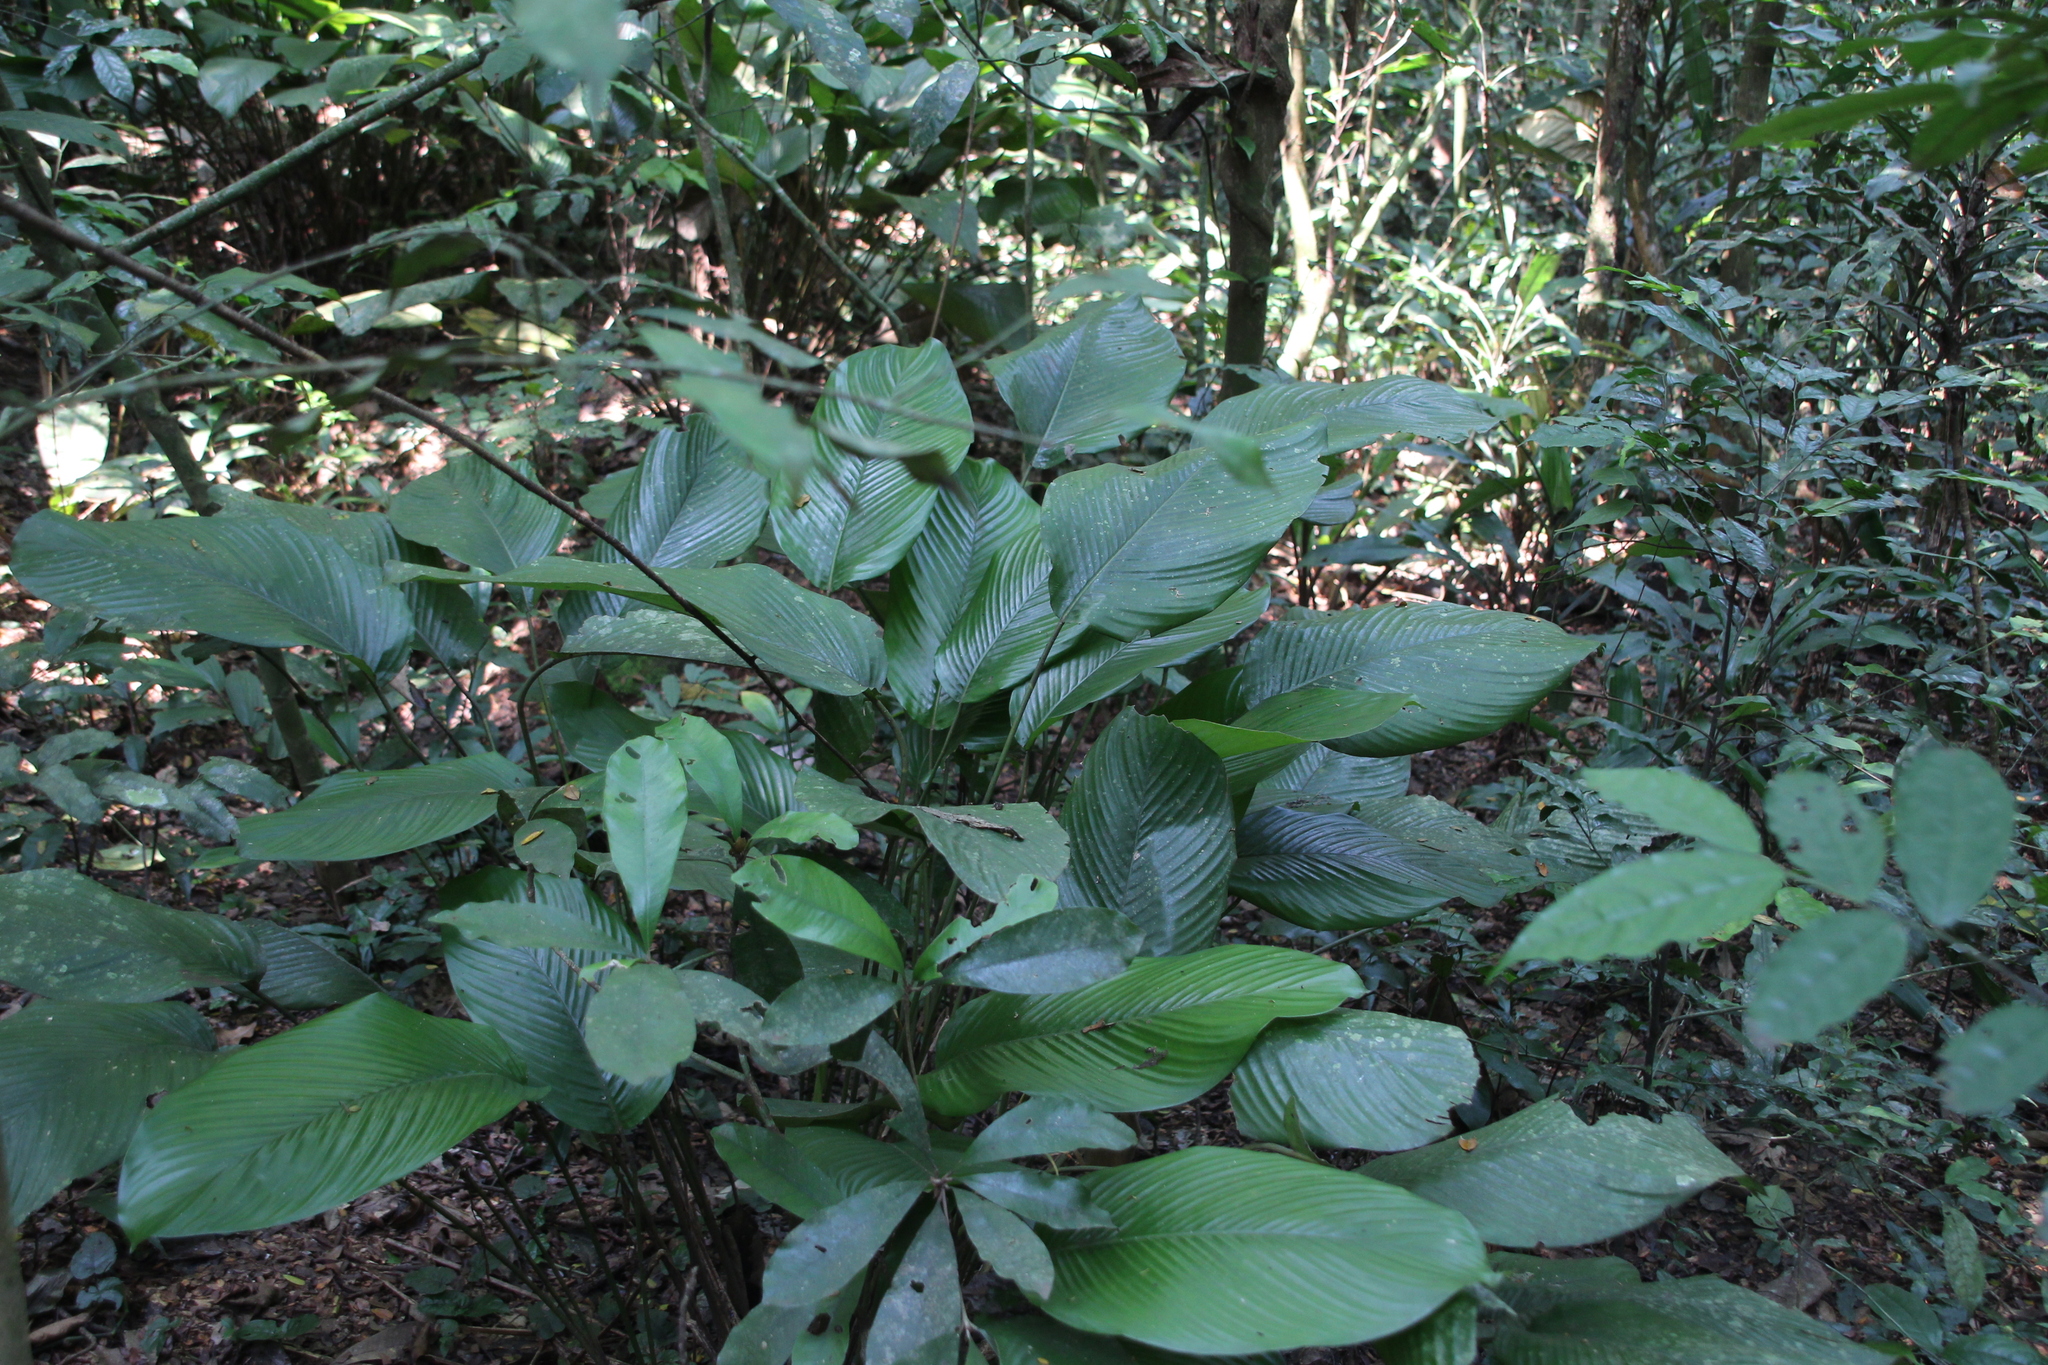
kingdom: Plantae
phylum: Tracheophyta
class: Liliopsida
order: Zingiberales
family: Marantaceae
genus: Sarcophrynium
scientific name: Sarcophrynium schweinfurthianum
